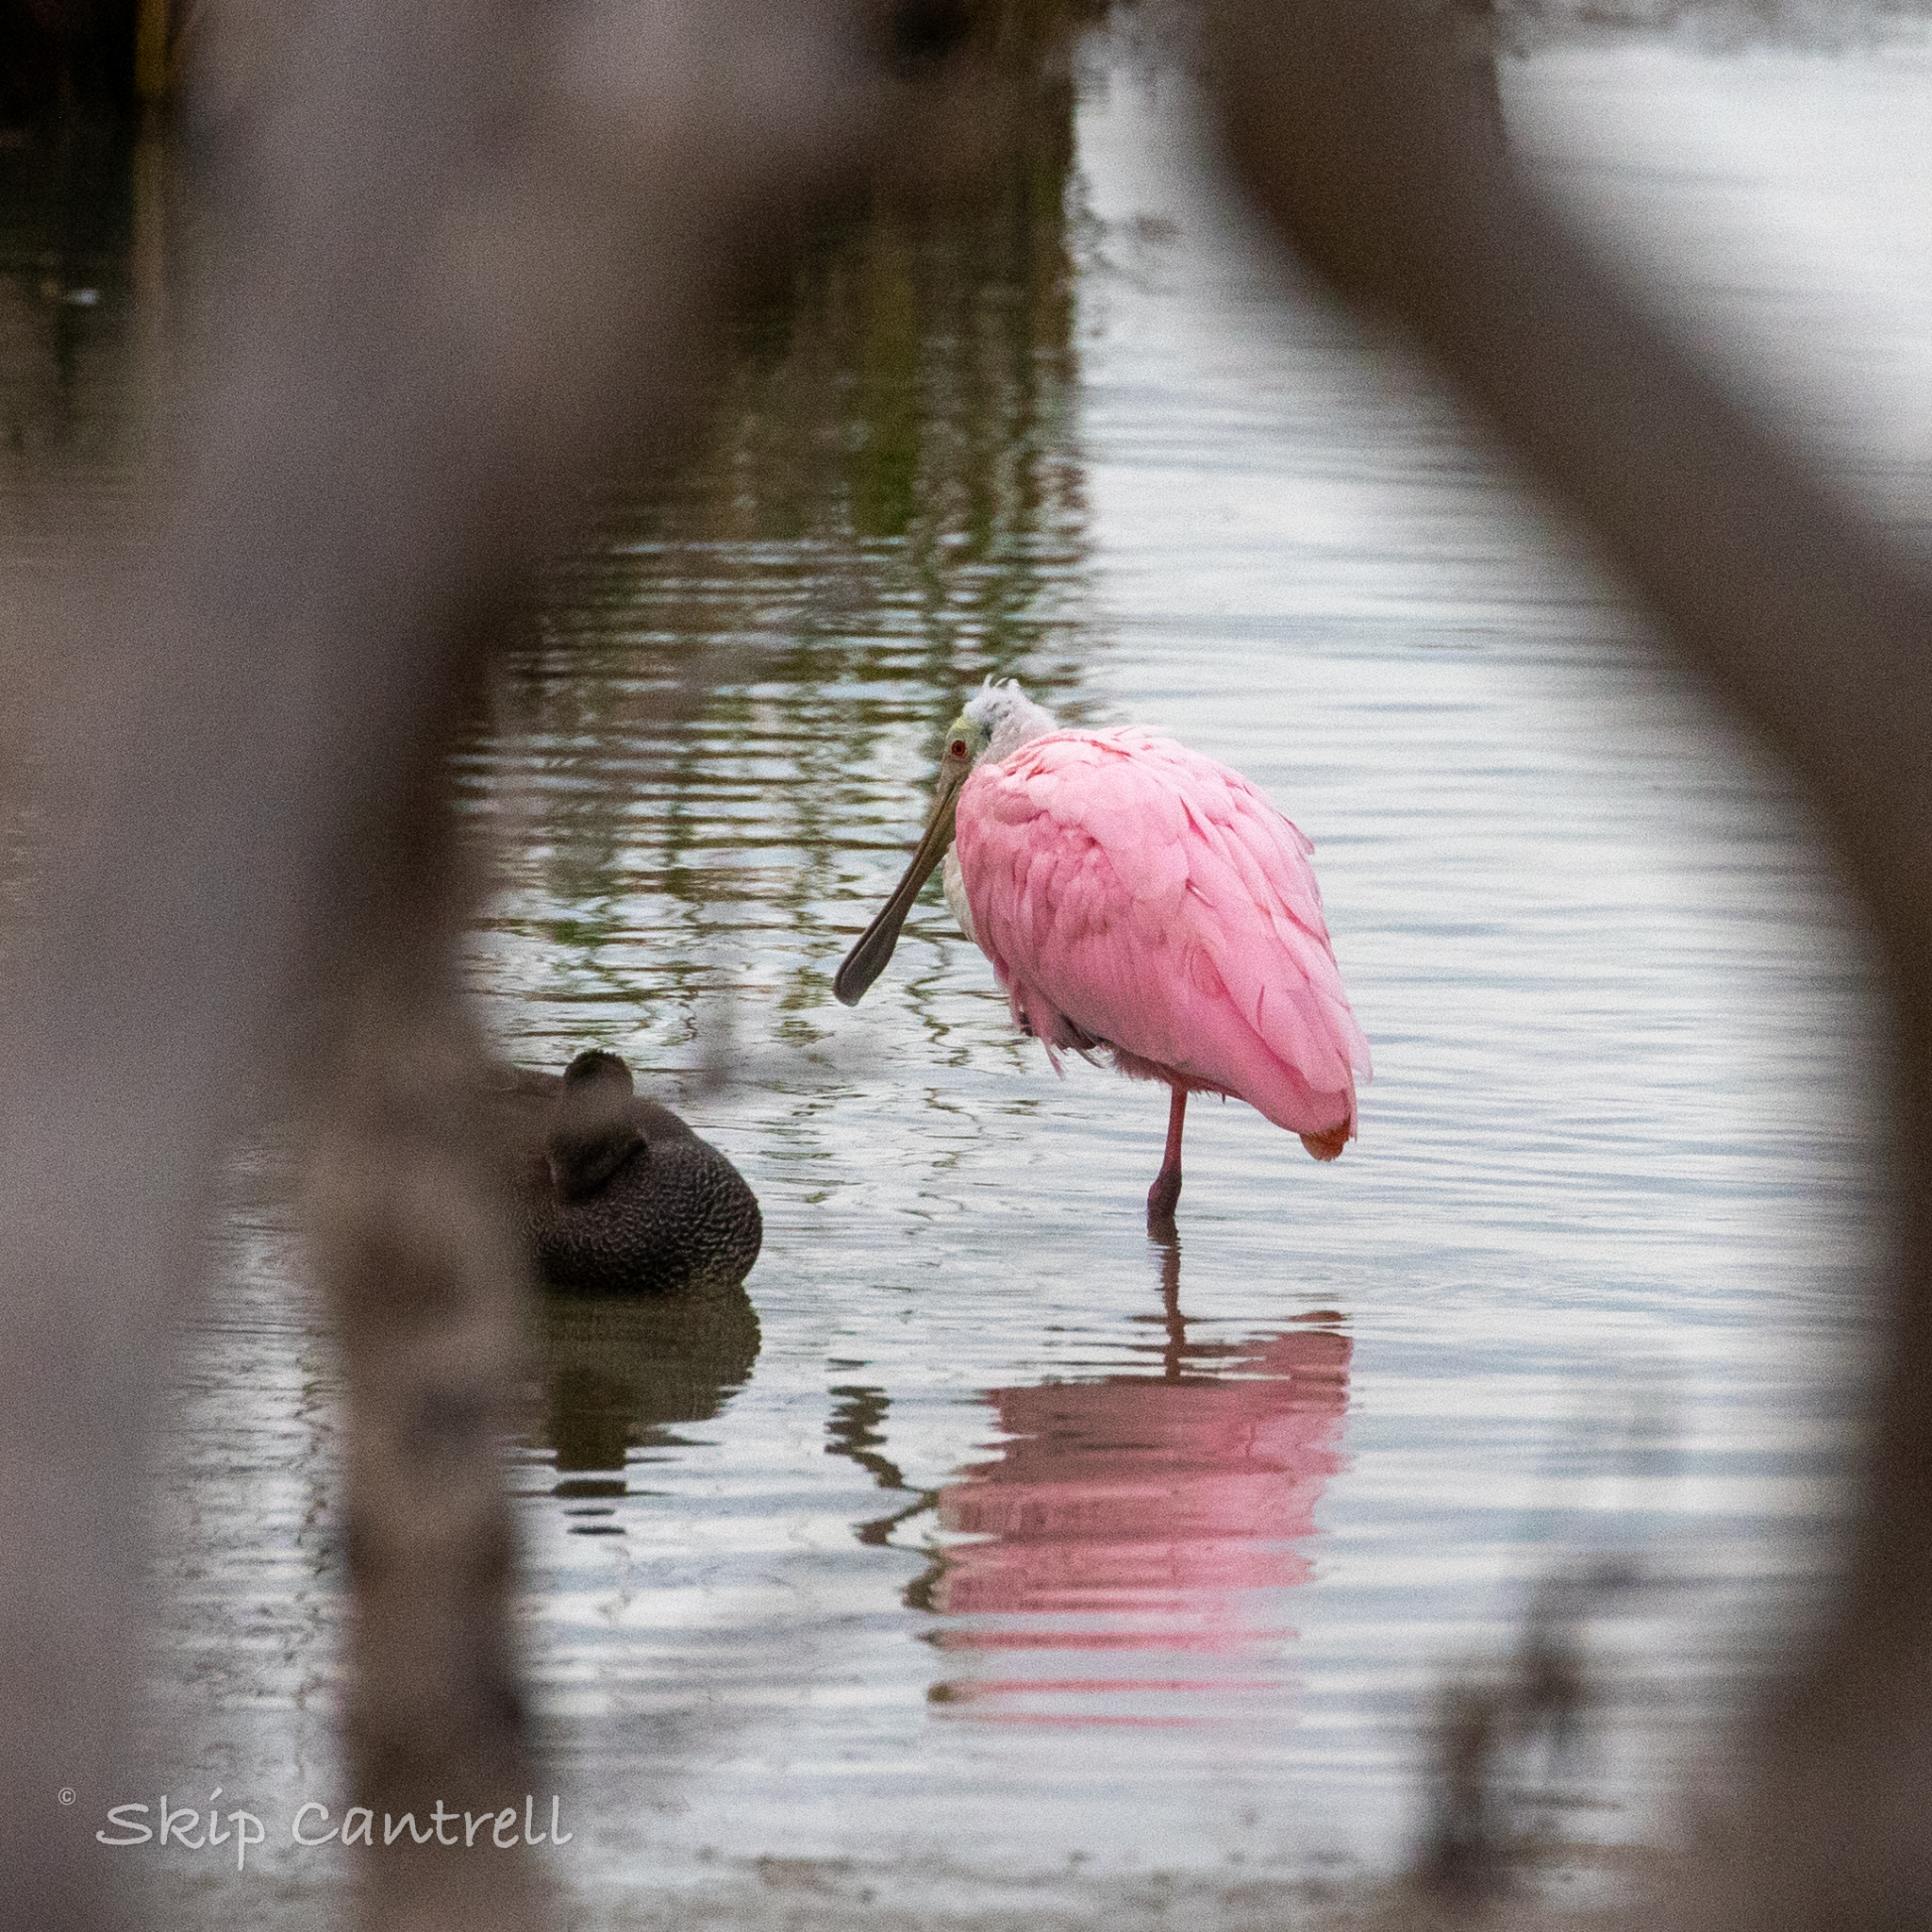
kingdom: Animalia
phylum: Chordata
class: Aves
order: Pelecaniformes
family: Threskiornithidae
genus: Platalea
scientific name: Platalea ajaja
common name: Roseate spoonbill
